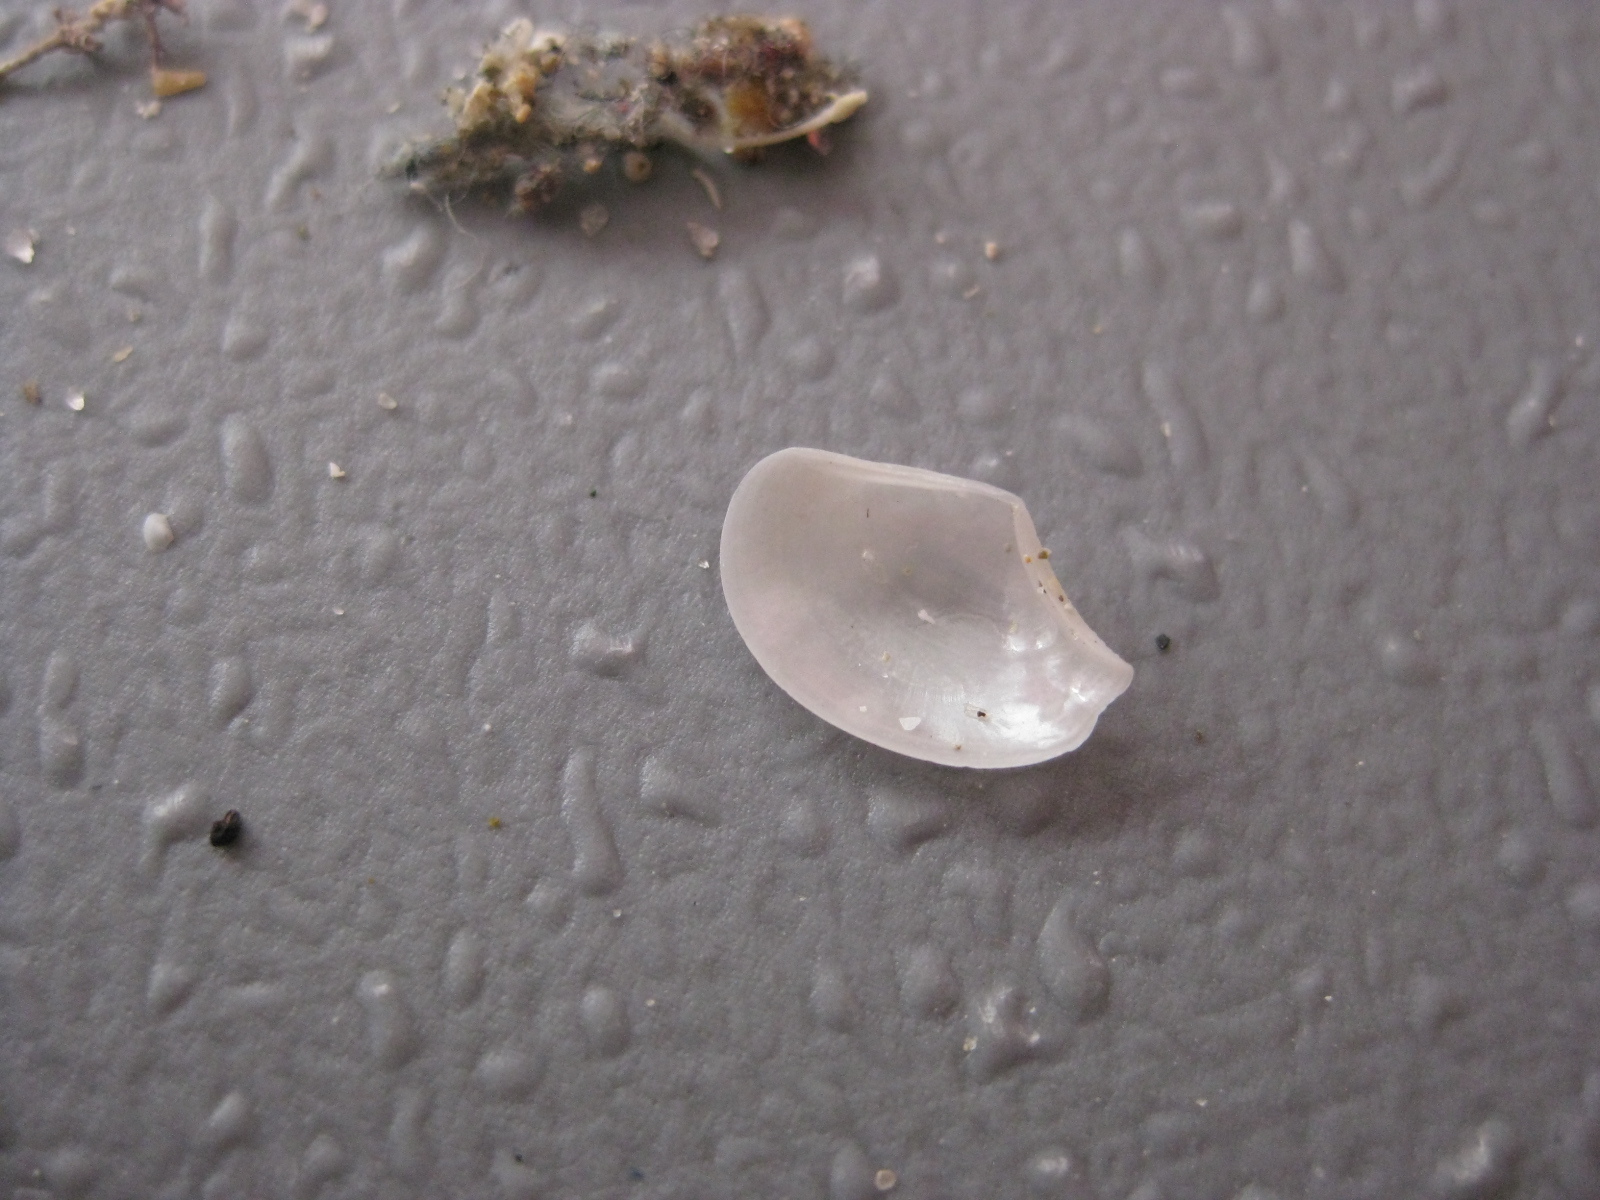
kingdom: Animalia
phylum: Mollusca
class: Bivalvia
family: Myochamidae
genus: Myadora
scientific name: Myadora boltoni
